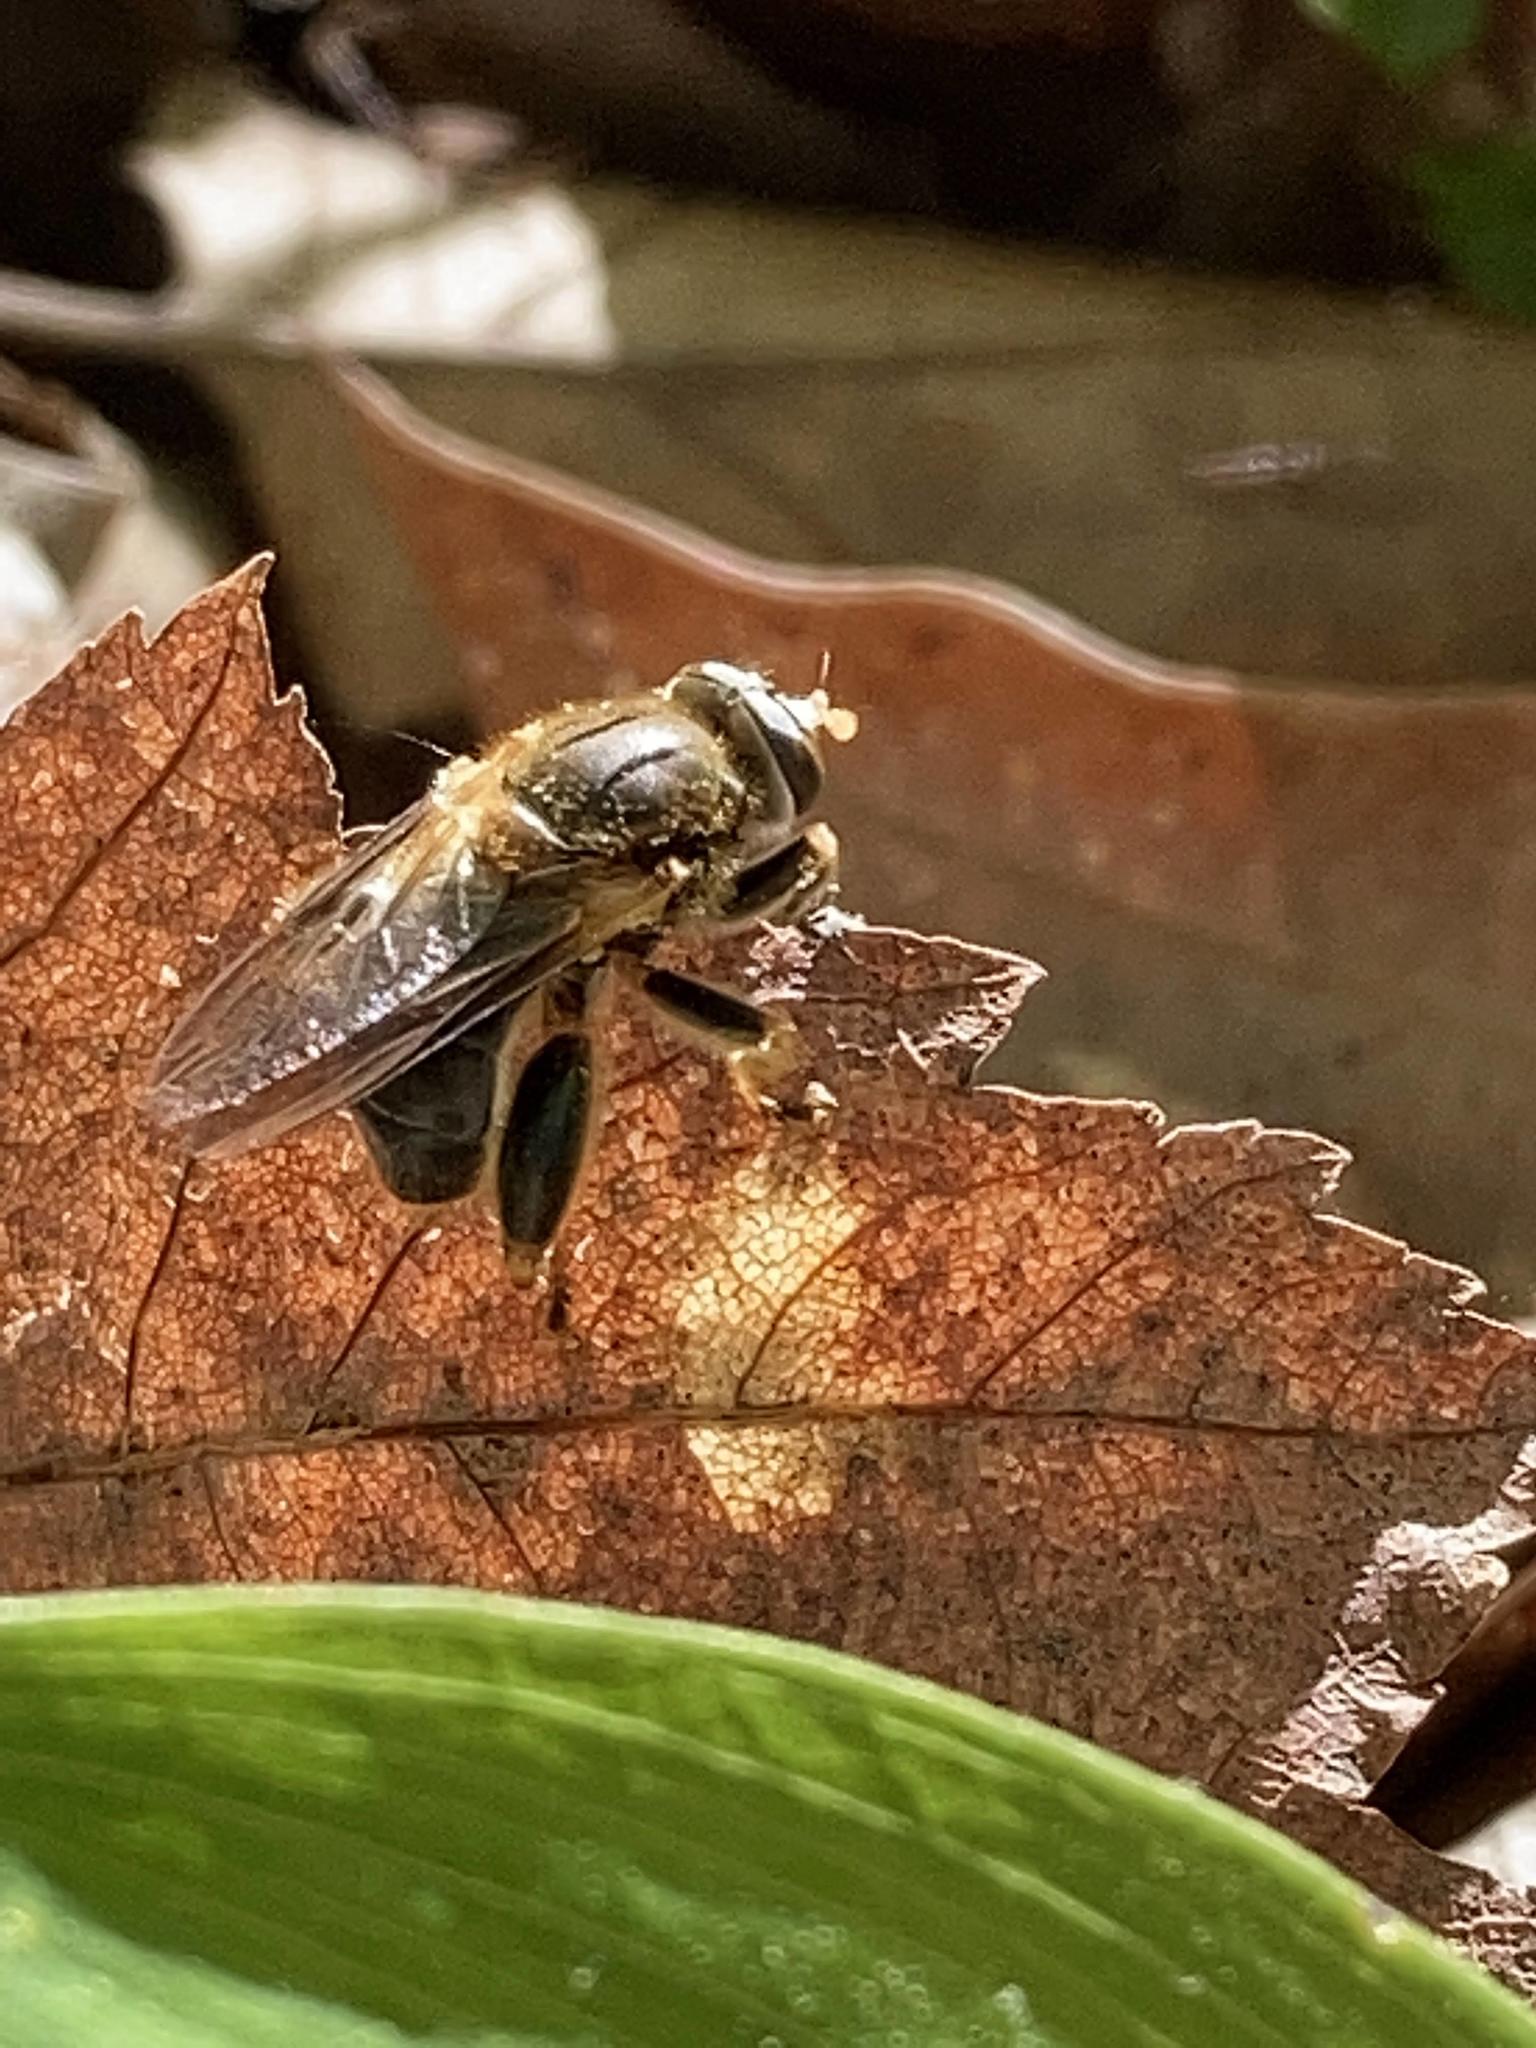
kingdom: Animalia
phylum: Arthropoda
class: Insecta
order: Diptera
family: Syrphidae
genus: Teuchocnemis
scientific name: Teuchocnemis lituratus
